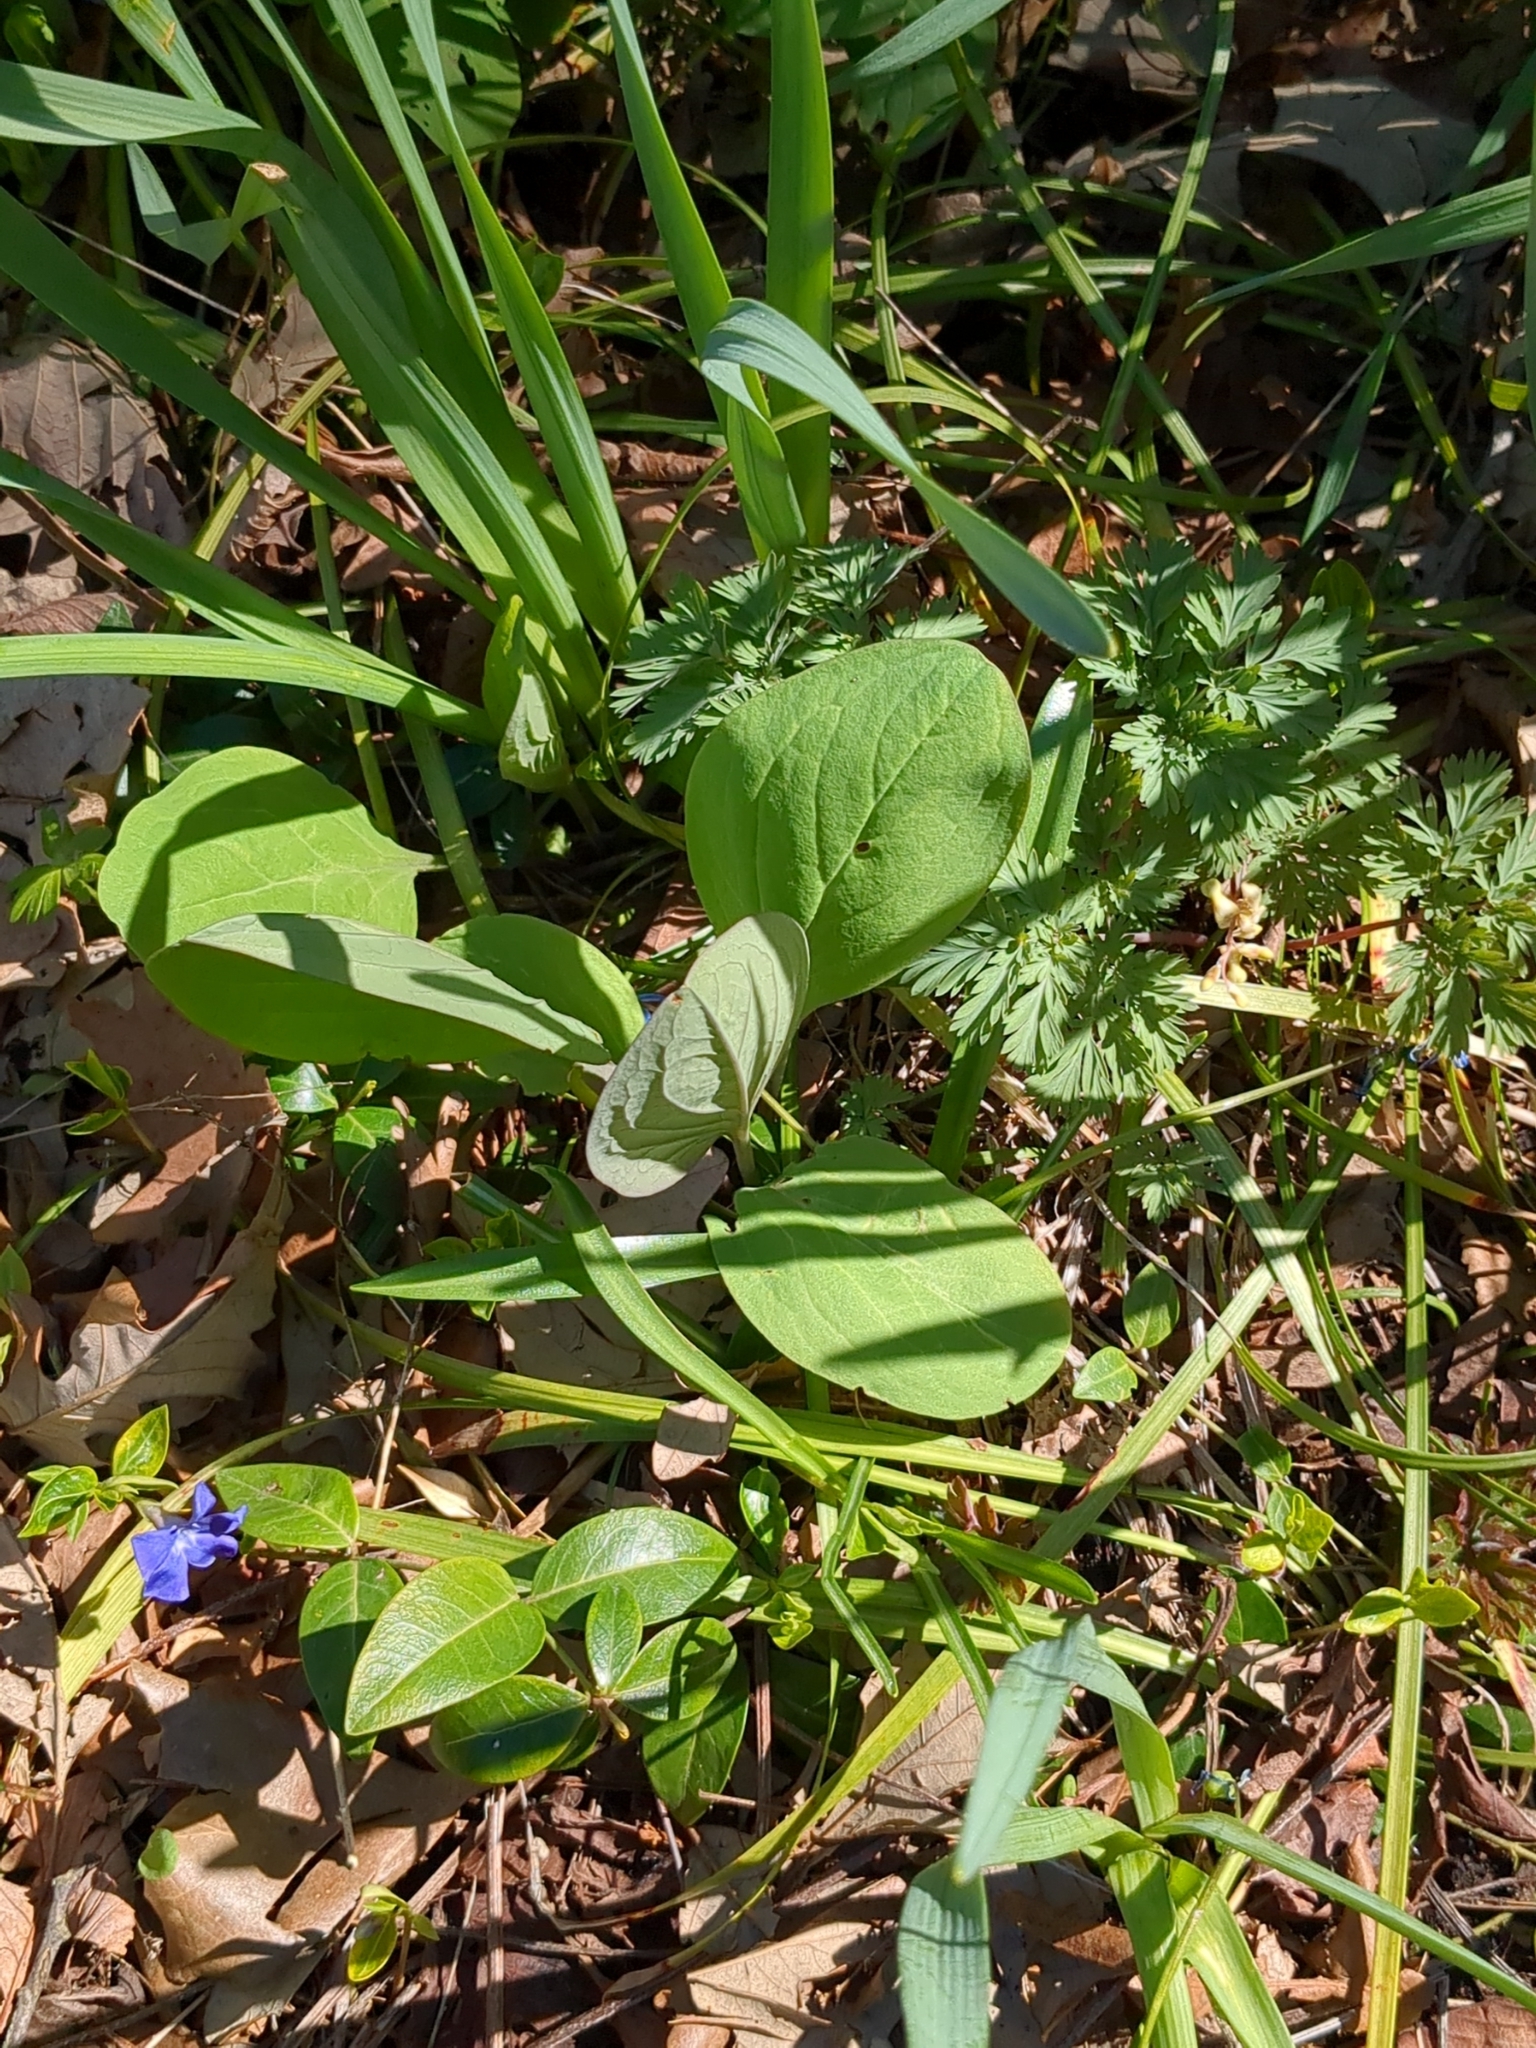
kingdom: Plantae
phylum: Tracheophyta
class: Magnoliopsida
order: Boraginales
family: Boraginaceae
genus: Mertensia
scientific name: Mertensia virginica
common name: Virginia bluebells
